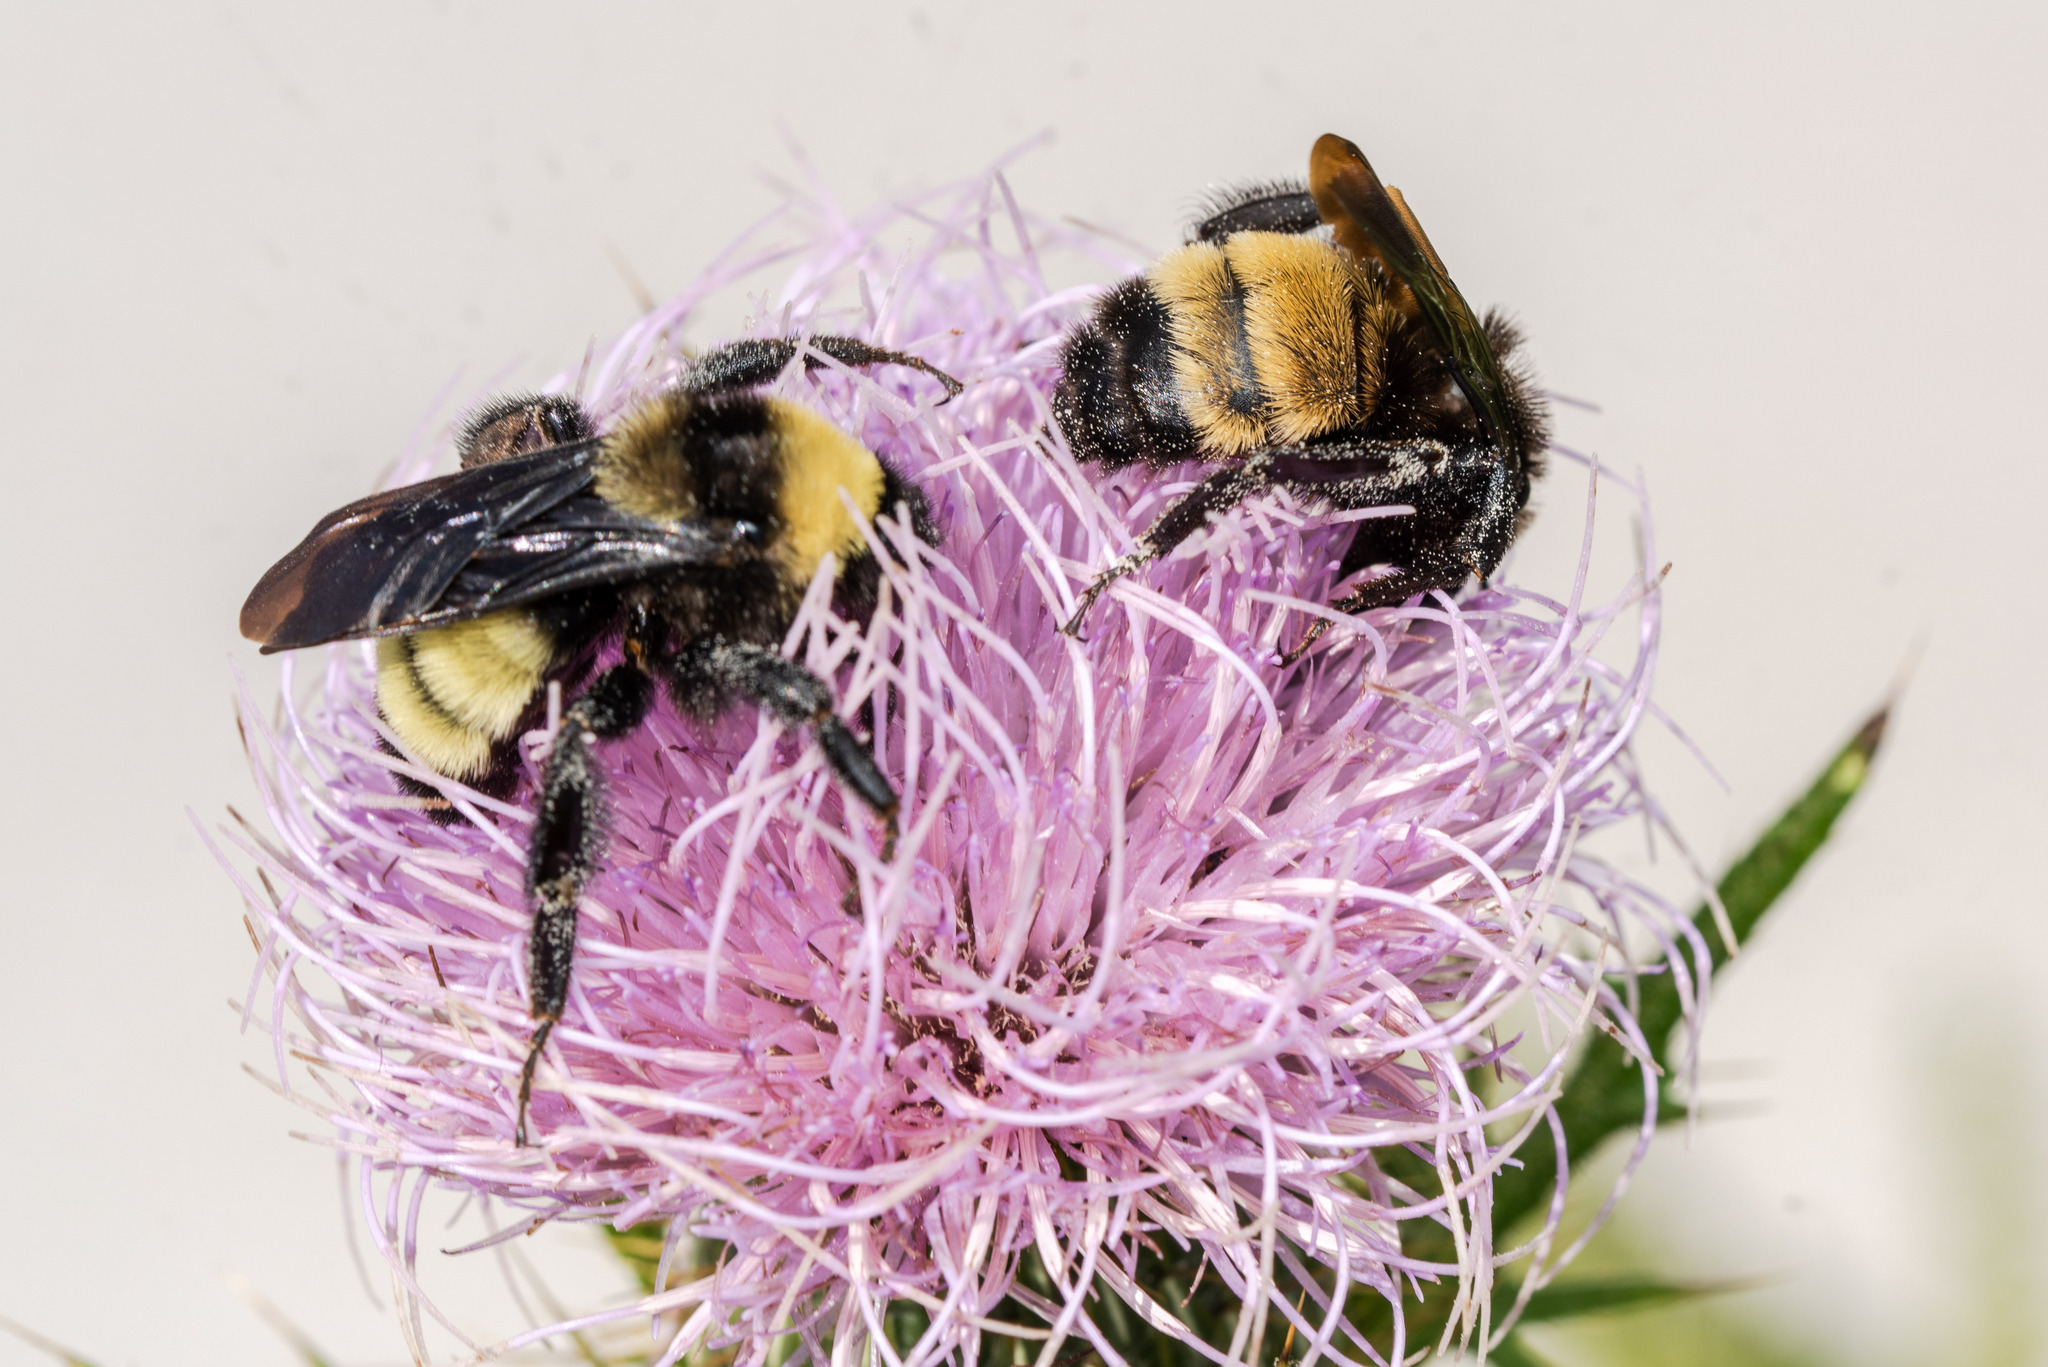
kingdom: Animalia
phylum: Arthropoda
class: Insecta
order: Hymenoptera
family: Apidae
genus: Bombus
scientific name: Bombus pensylvanicus
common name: Bumble bee
